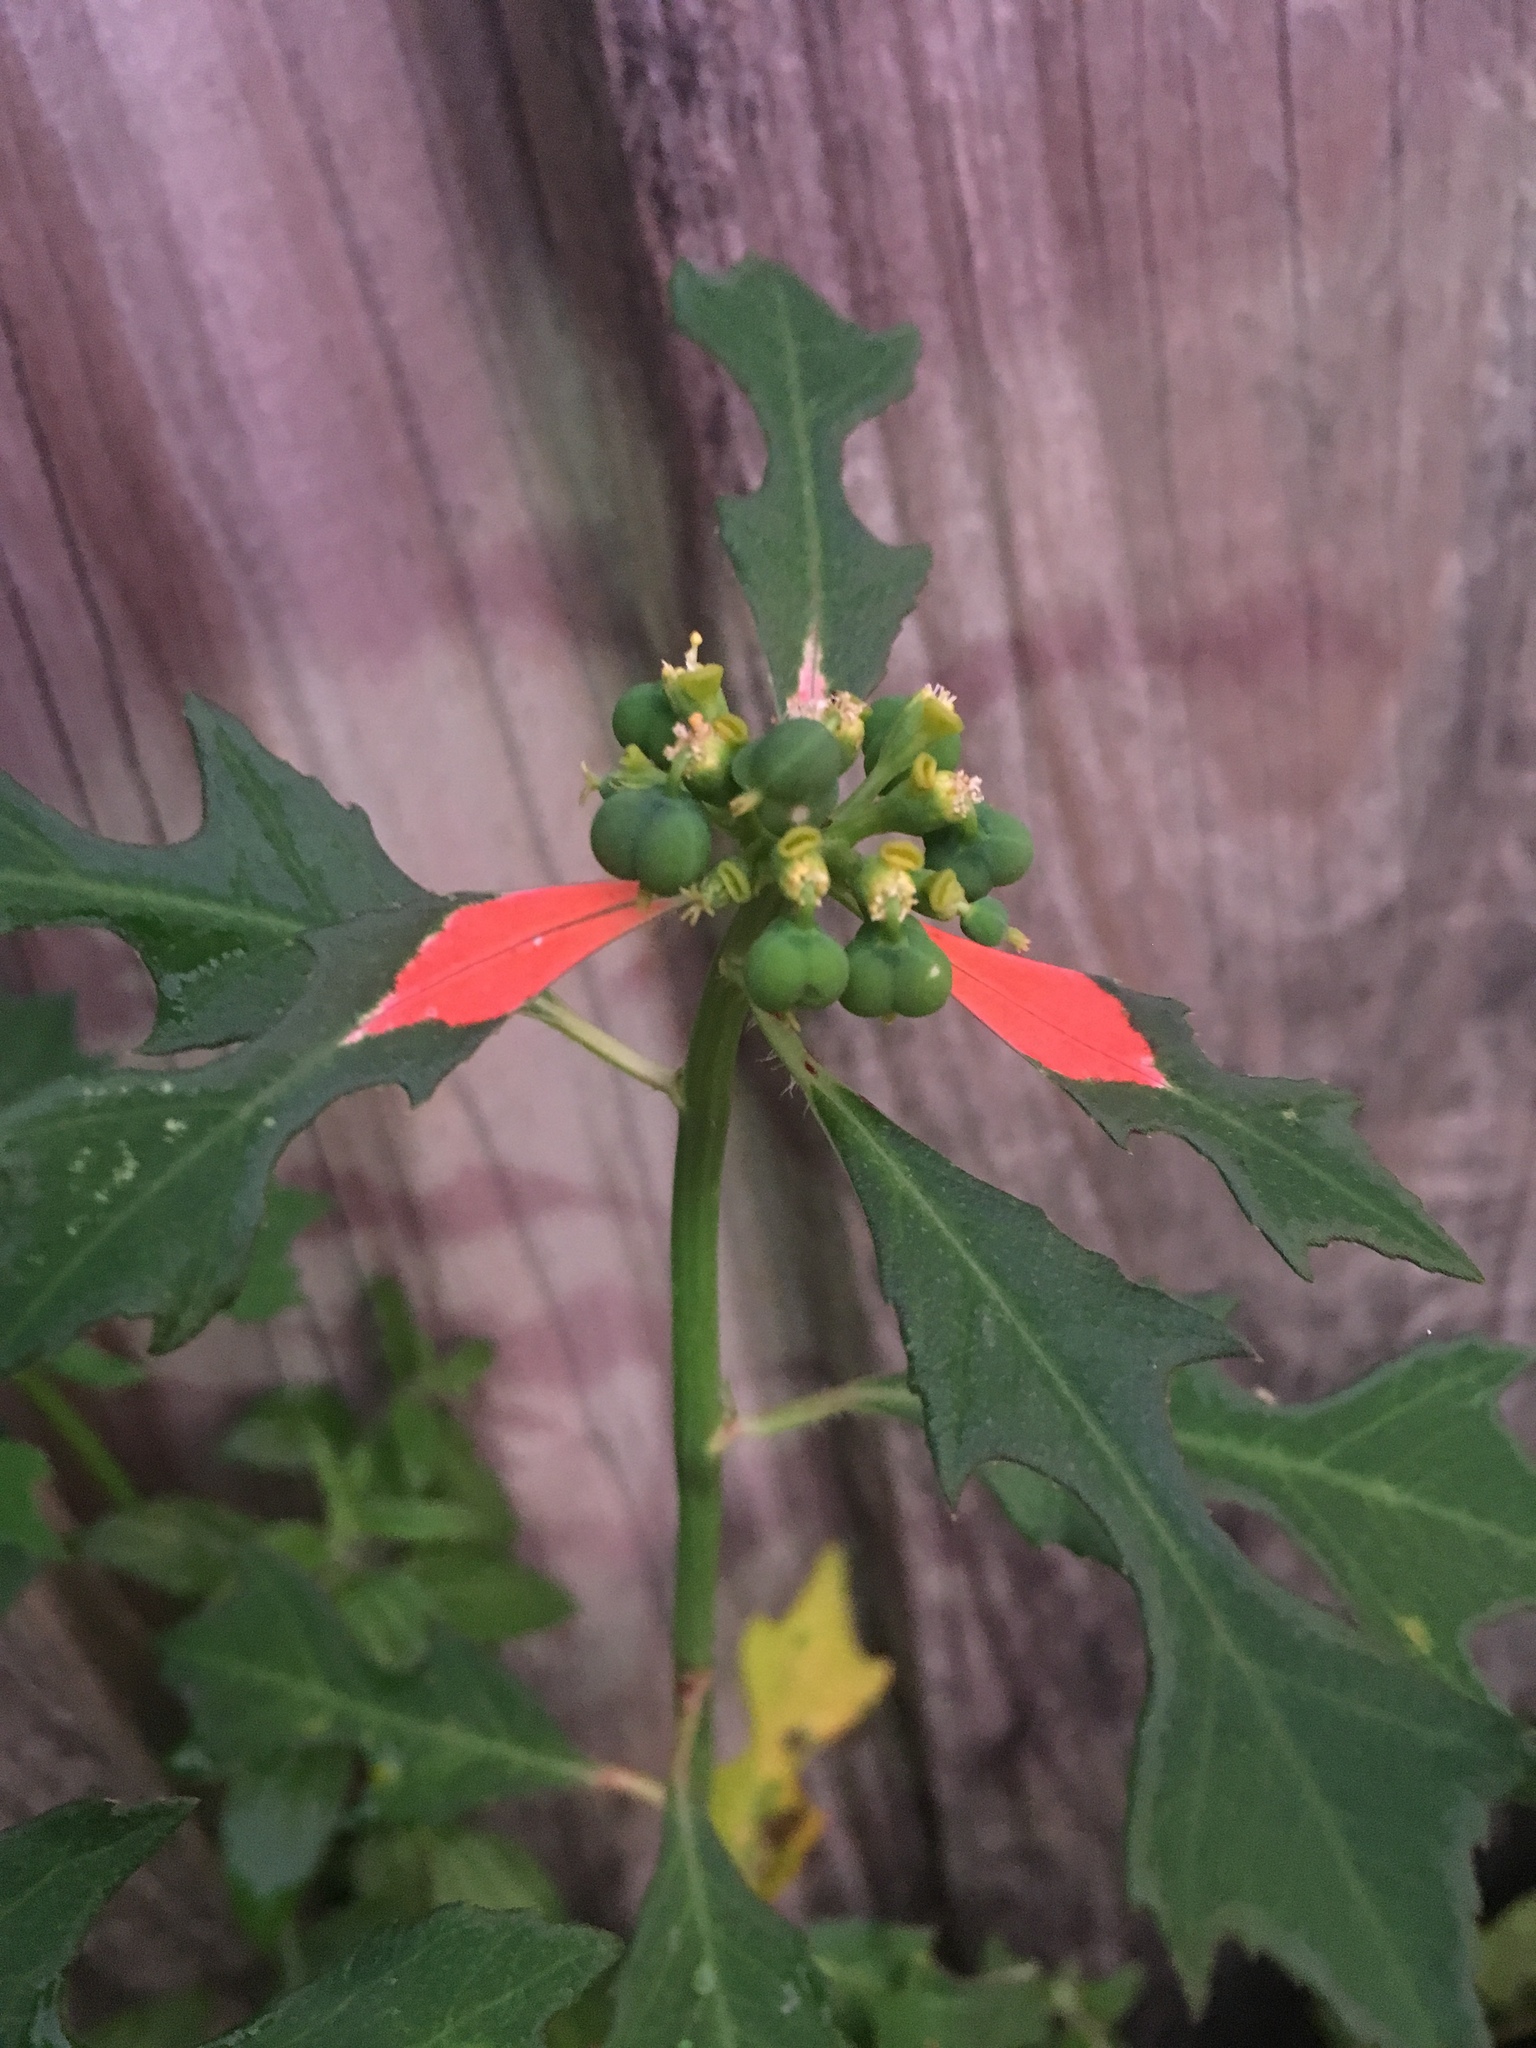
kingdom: Plantae
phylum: Tracheophyta
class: Magnoliopsida
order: Malpighiales
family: Euphorbiaceae
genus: Euphorbia
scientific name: Euphorbia heterophylla
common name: Mexican fireplant
